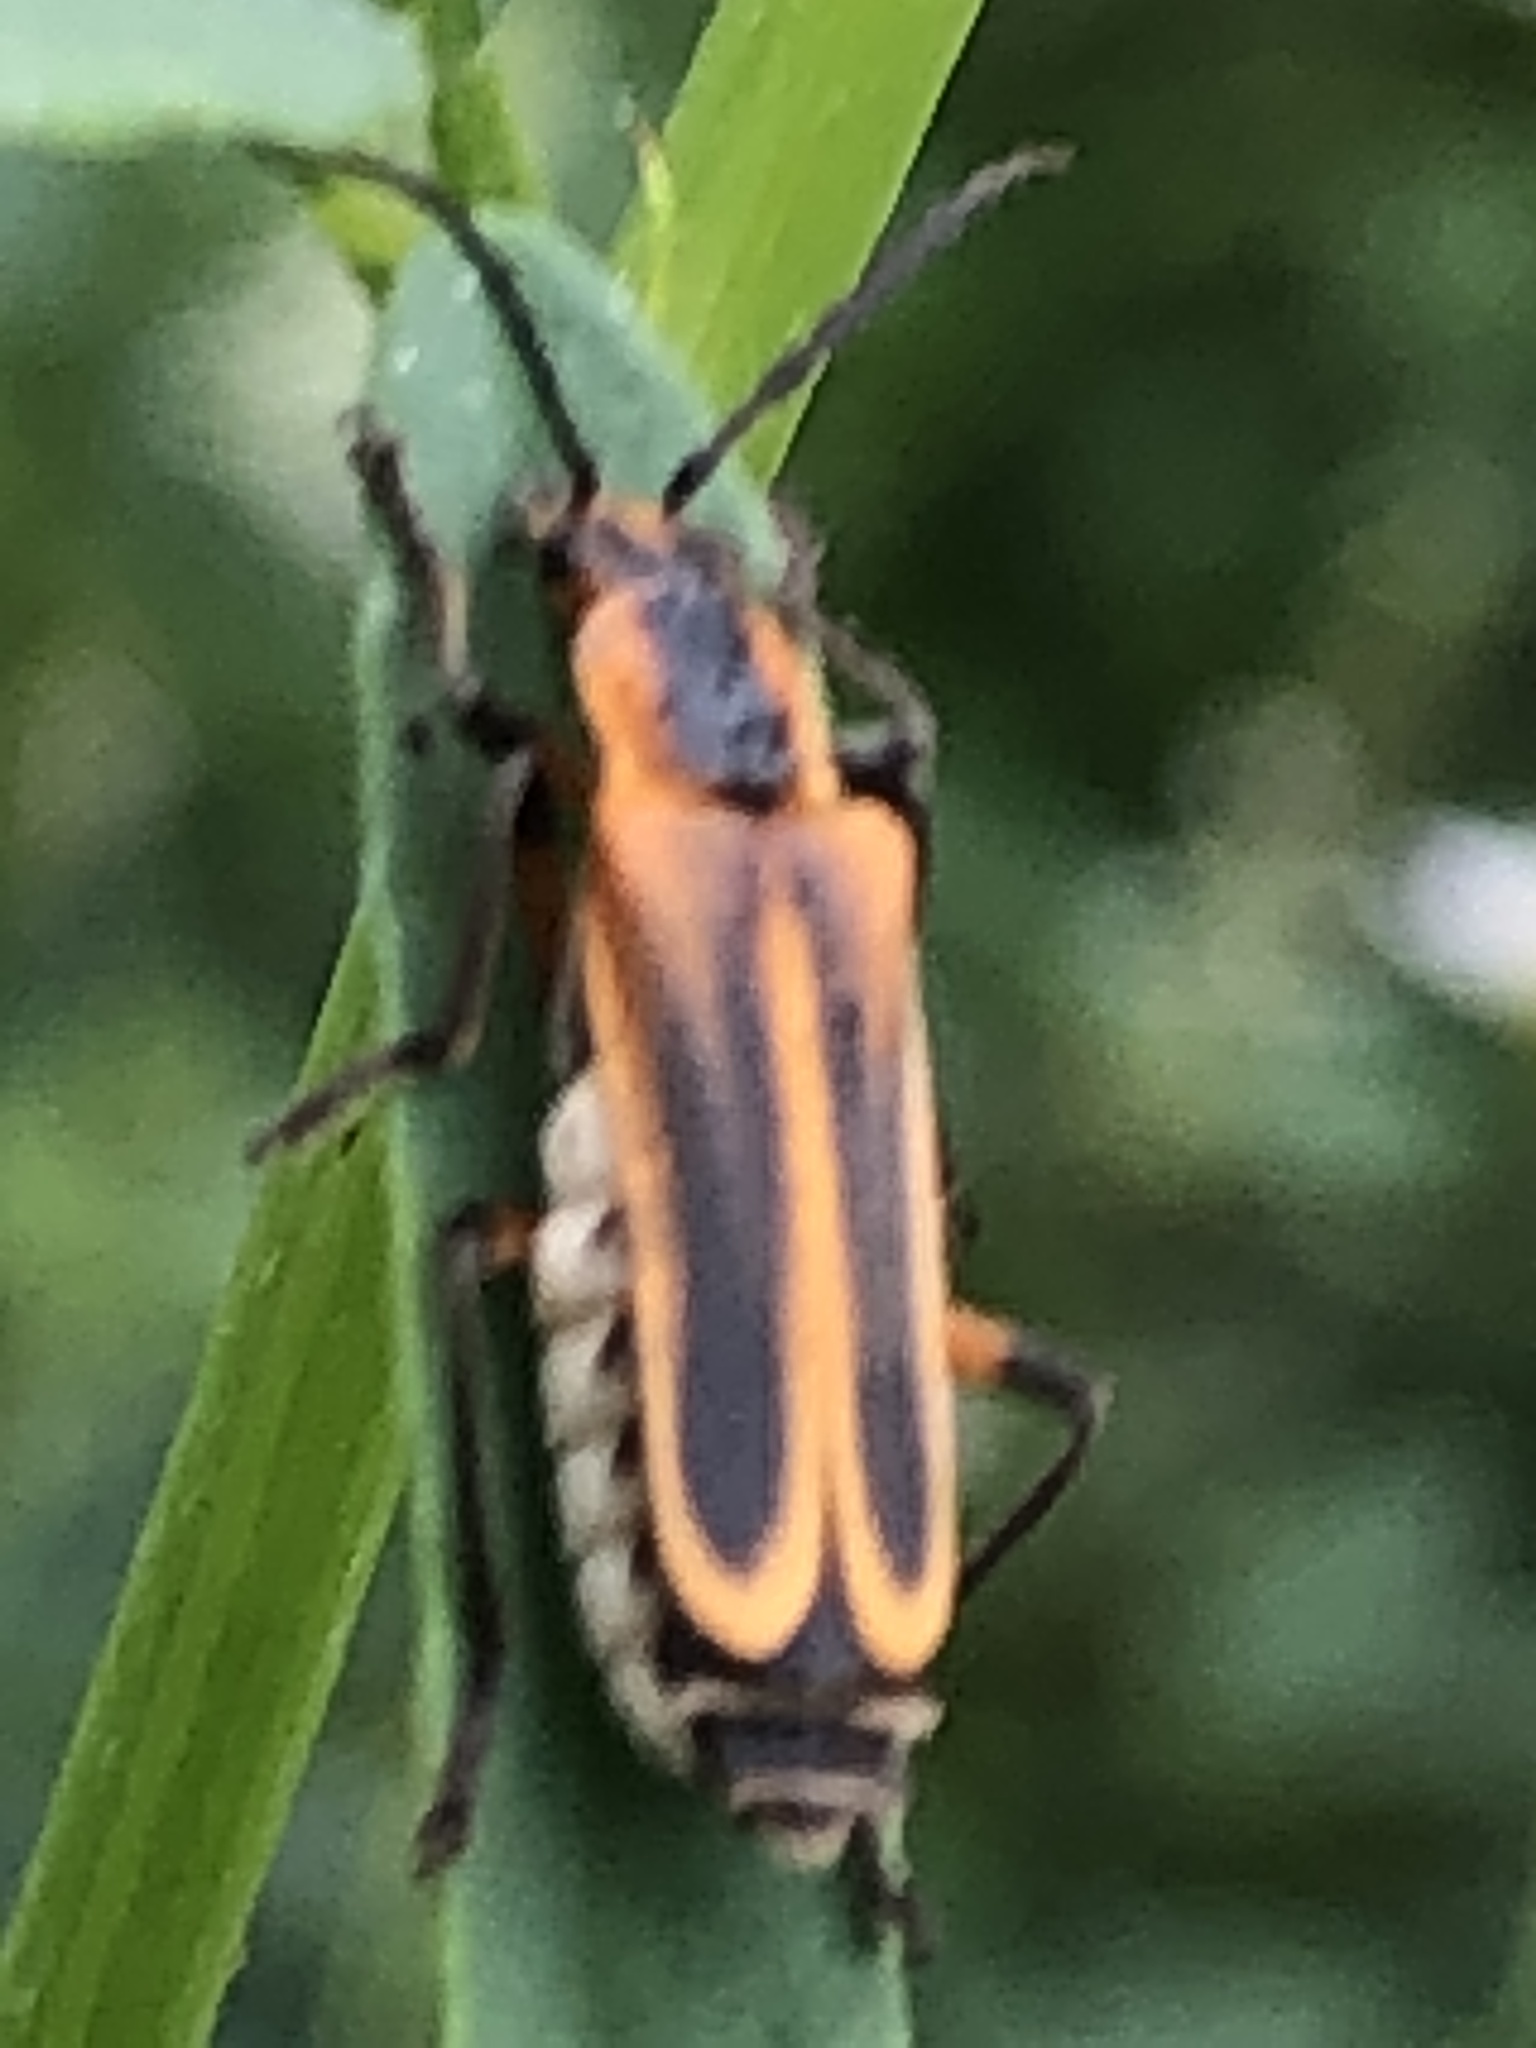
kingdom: Animalia
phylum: Arthropoda
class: Insecta
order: Coleoptera
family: Cantharidae
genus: Chauliognathus
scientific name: Chauliognathus marginatus
